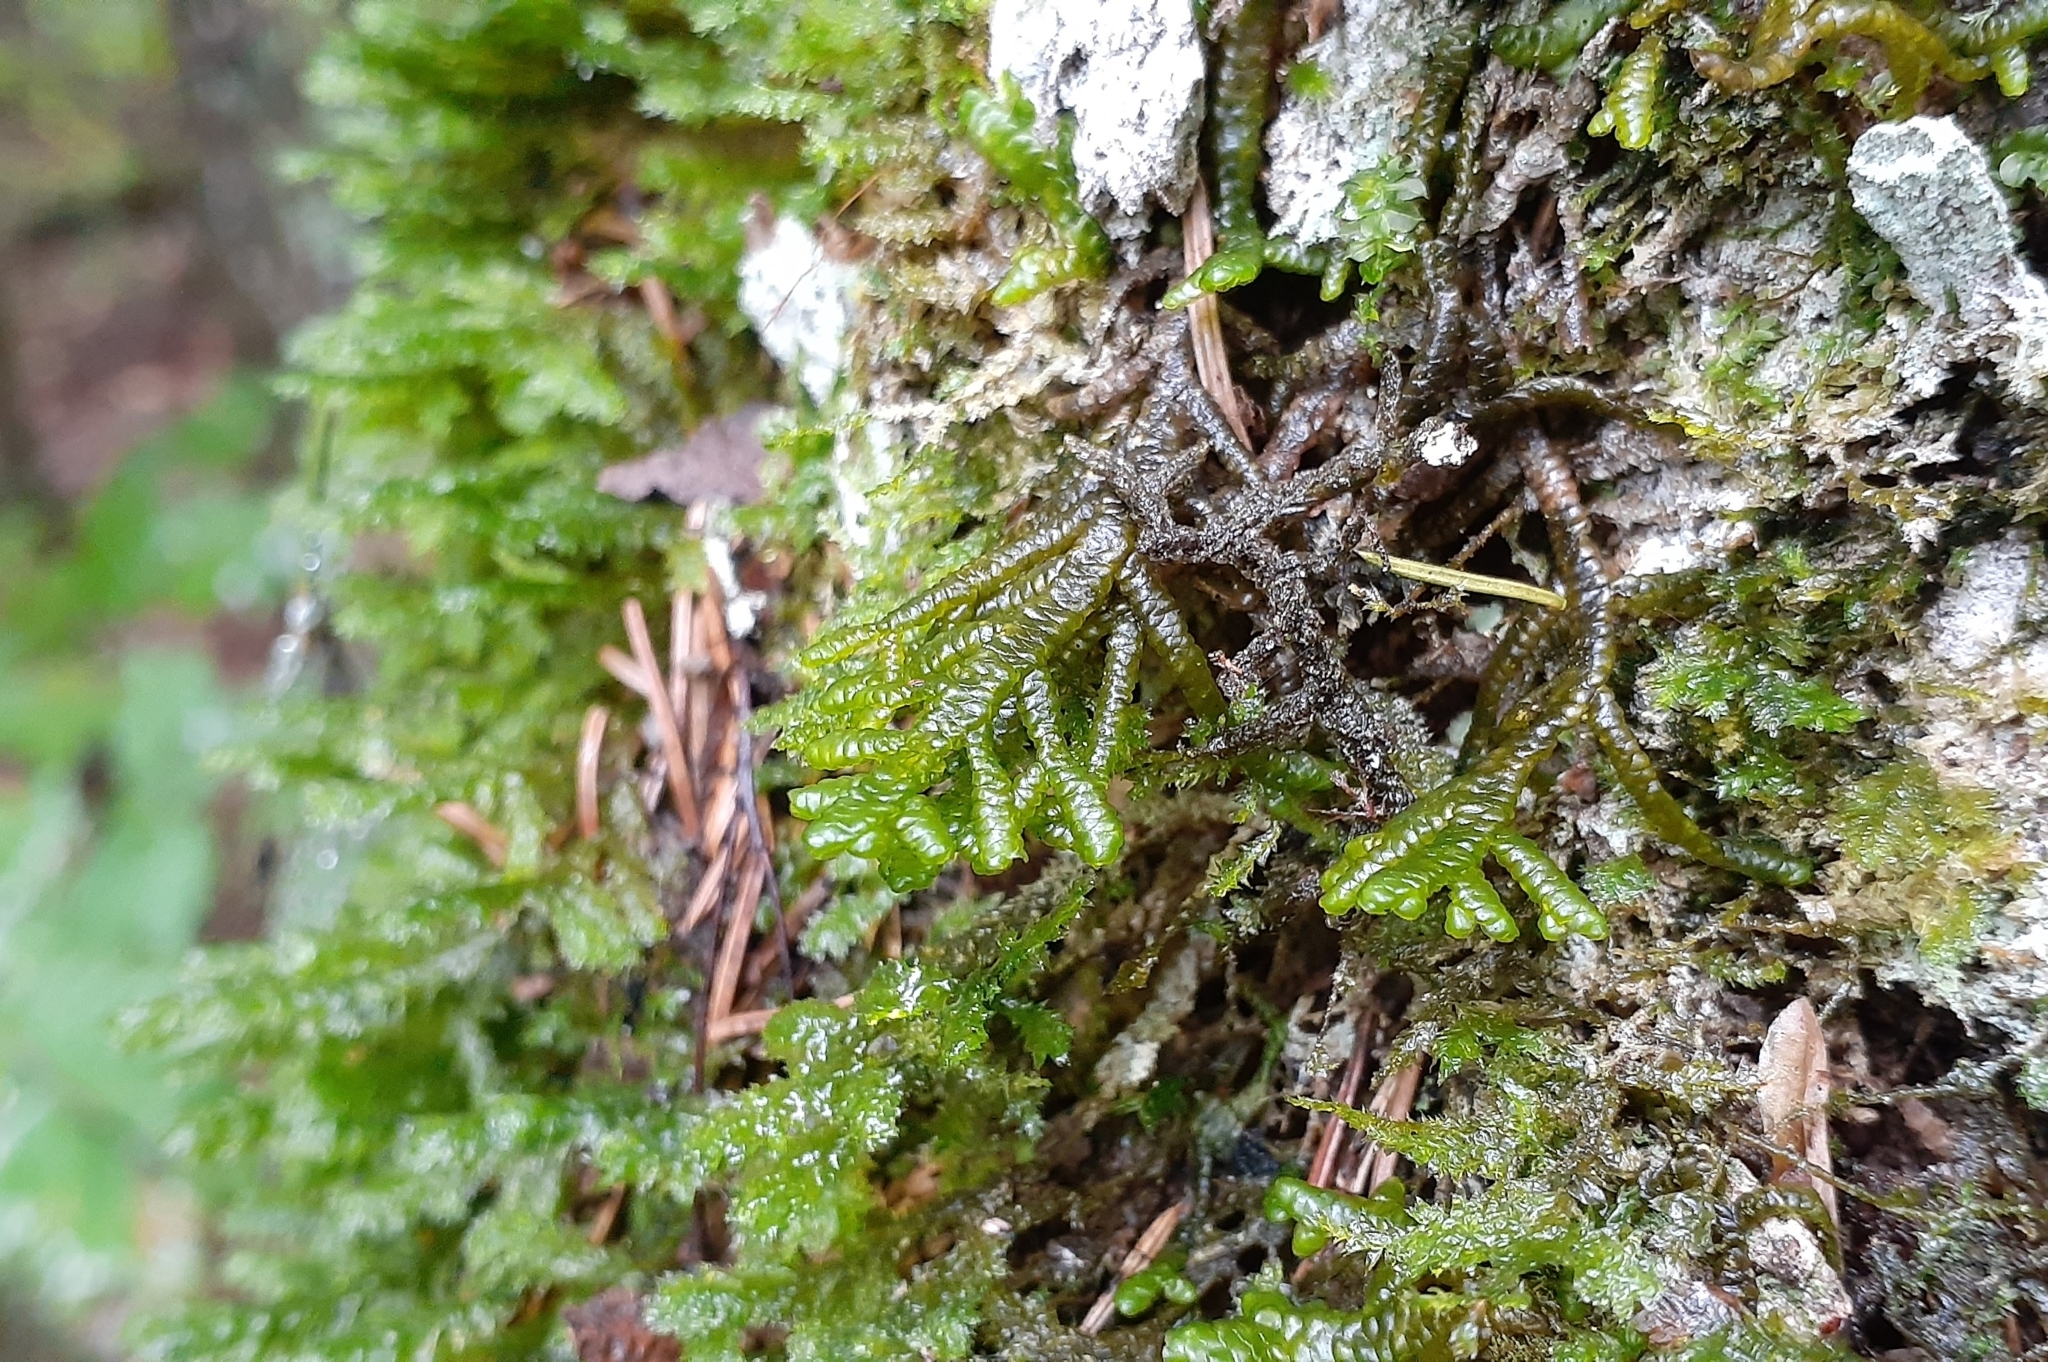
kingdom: Plantae
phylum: Marchantiophyta
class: Jungermanniopsida
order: Porellales
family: Porellaceae
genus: Porella
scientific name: Porella platyphylla
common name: Wall scalewort
